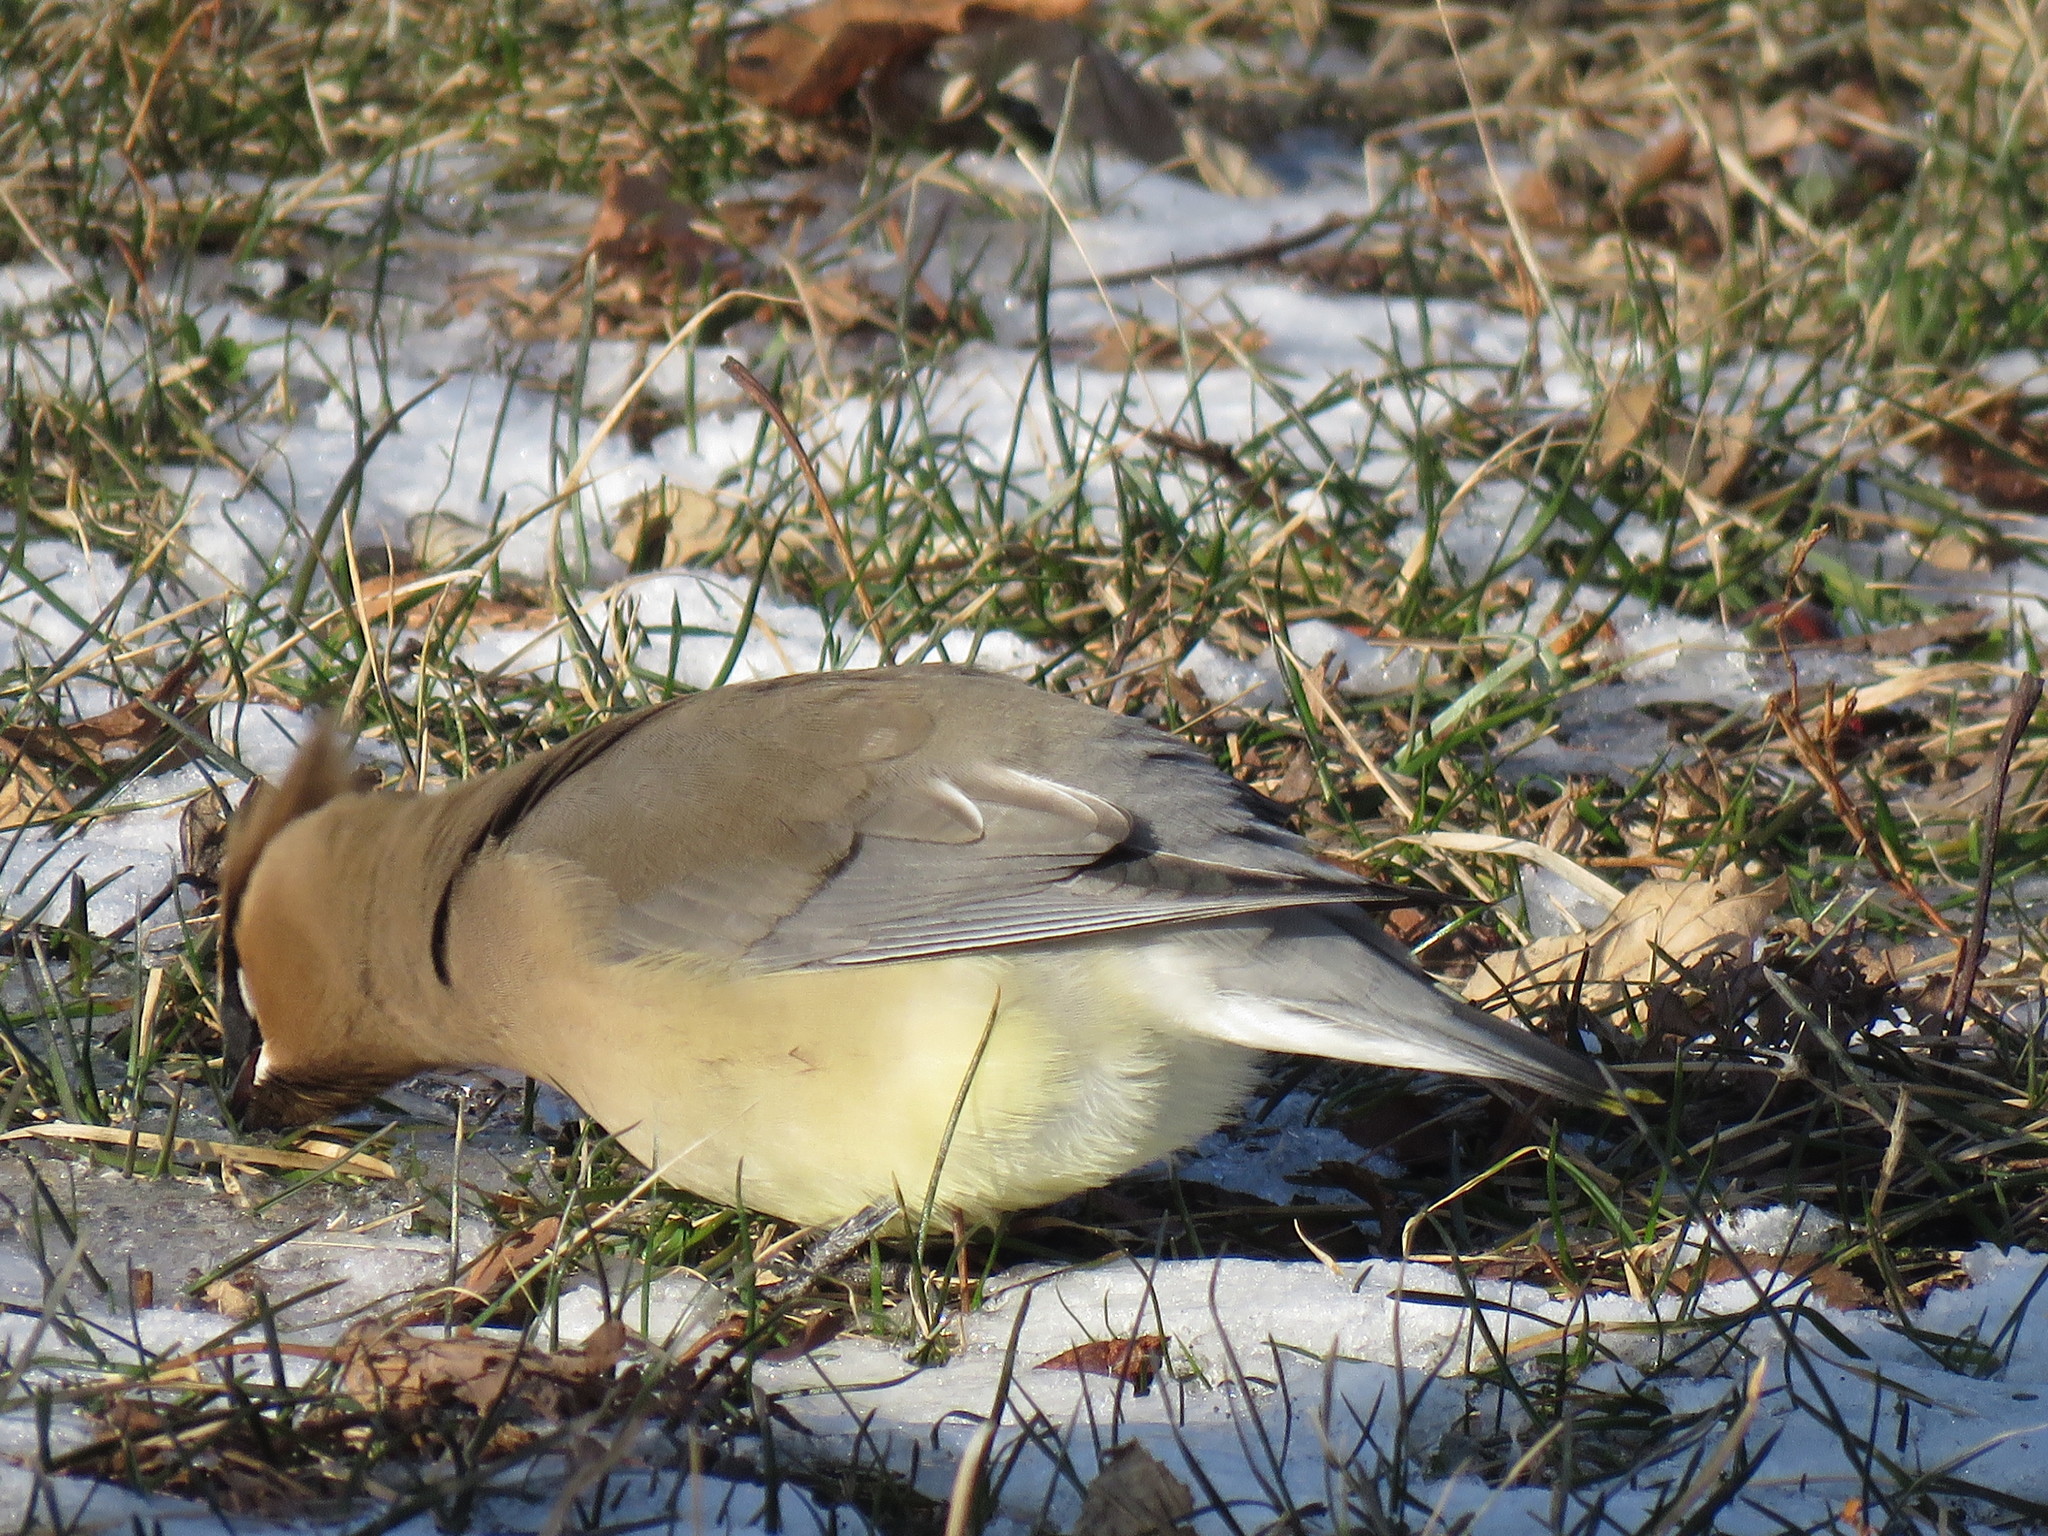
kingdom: Animalia
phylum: Chordata
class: Aves
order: Passeriformes
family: Bombycillidae
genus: Bombycilla
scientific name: Bombycilla cedrorum
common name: Cedar waxwing
